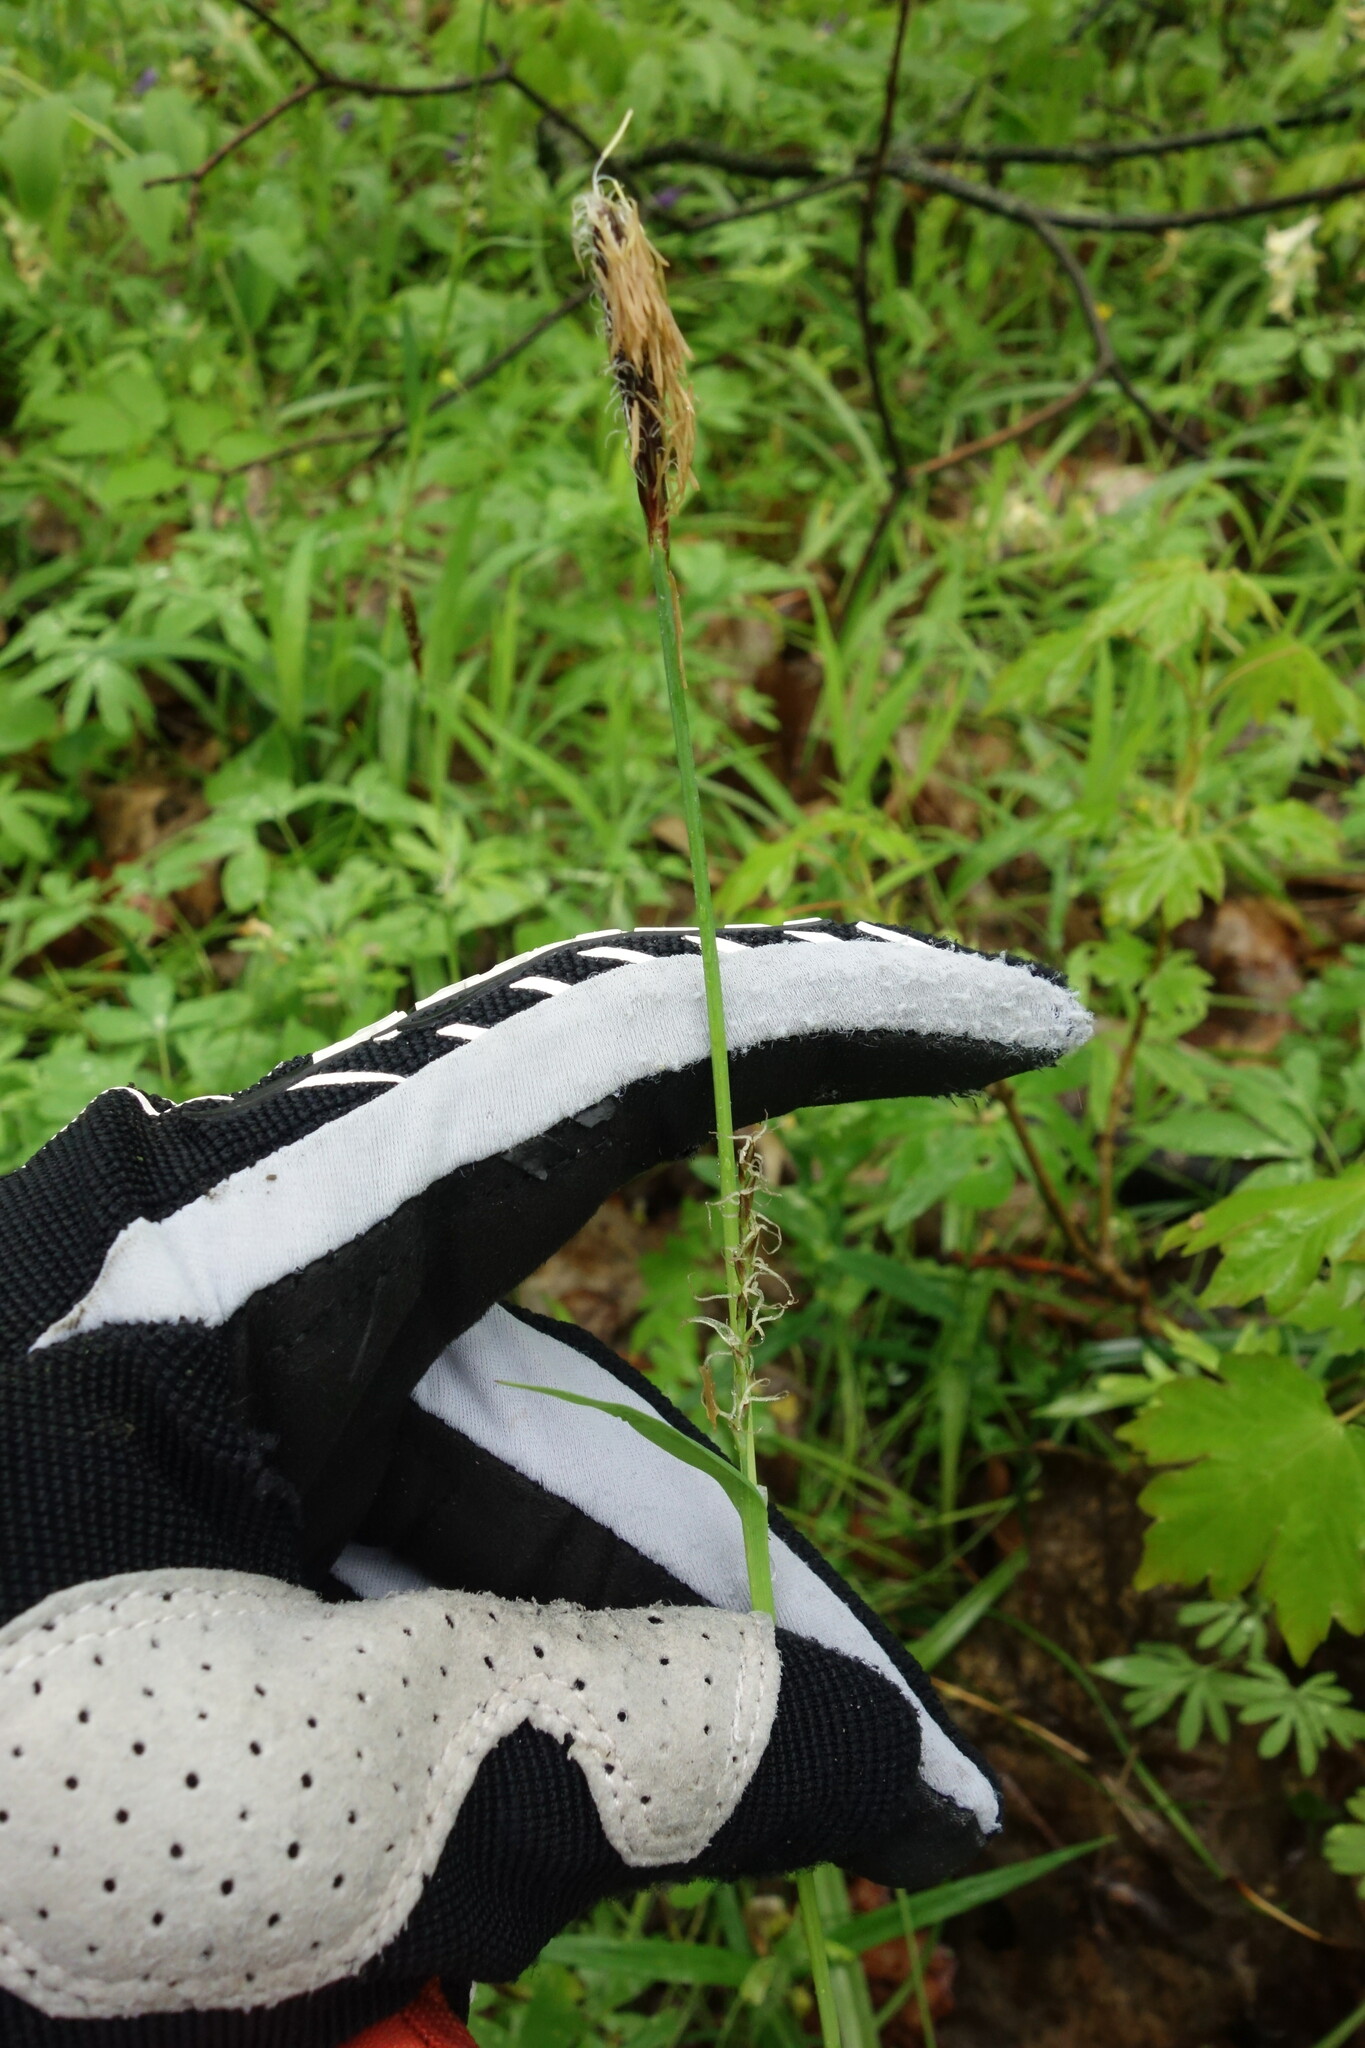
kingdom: Plantae
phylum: Tracheophyta
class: Liliopsida
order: Poales
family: Cyperaceae
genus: Carex
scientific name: Carex pilosa
